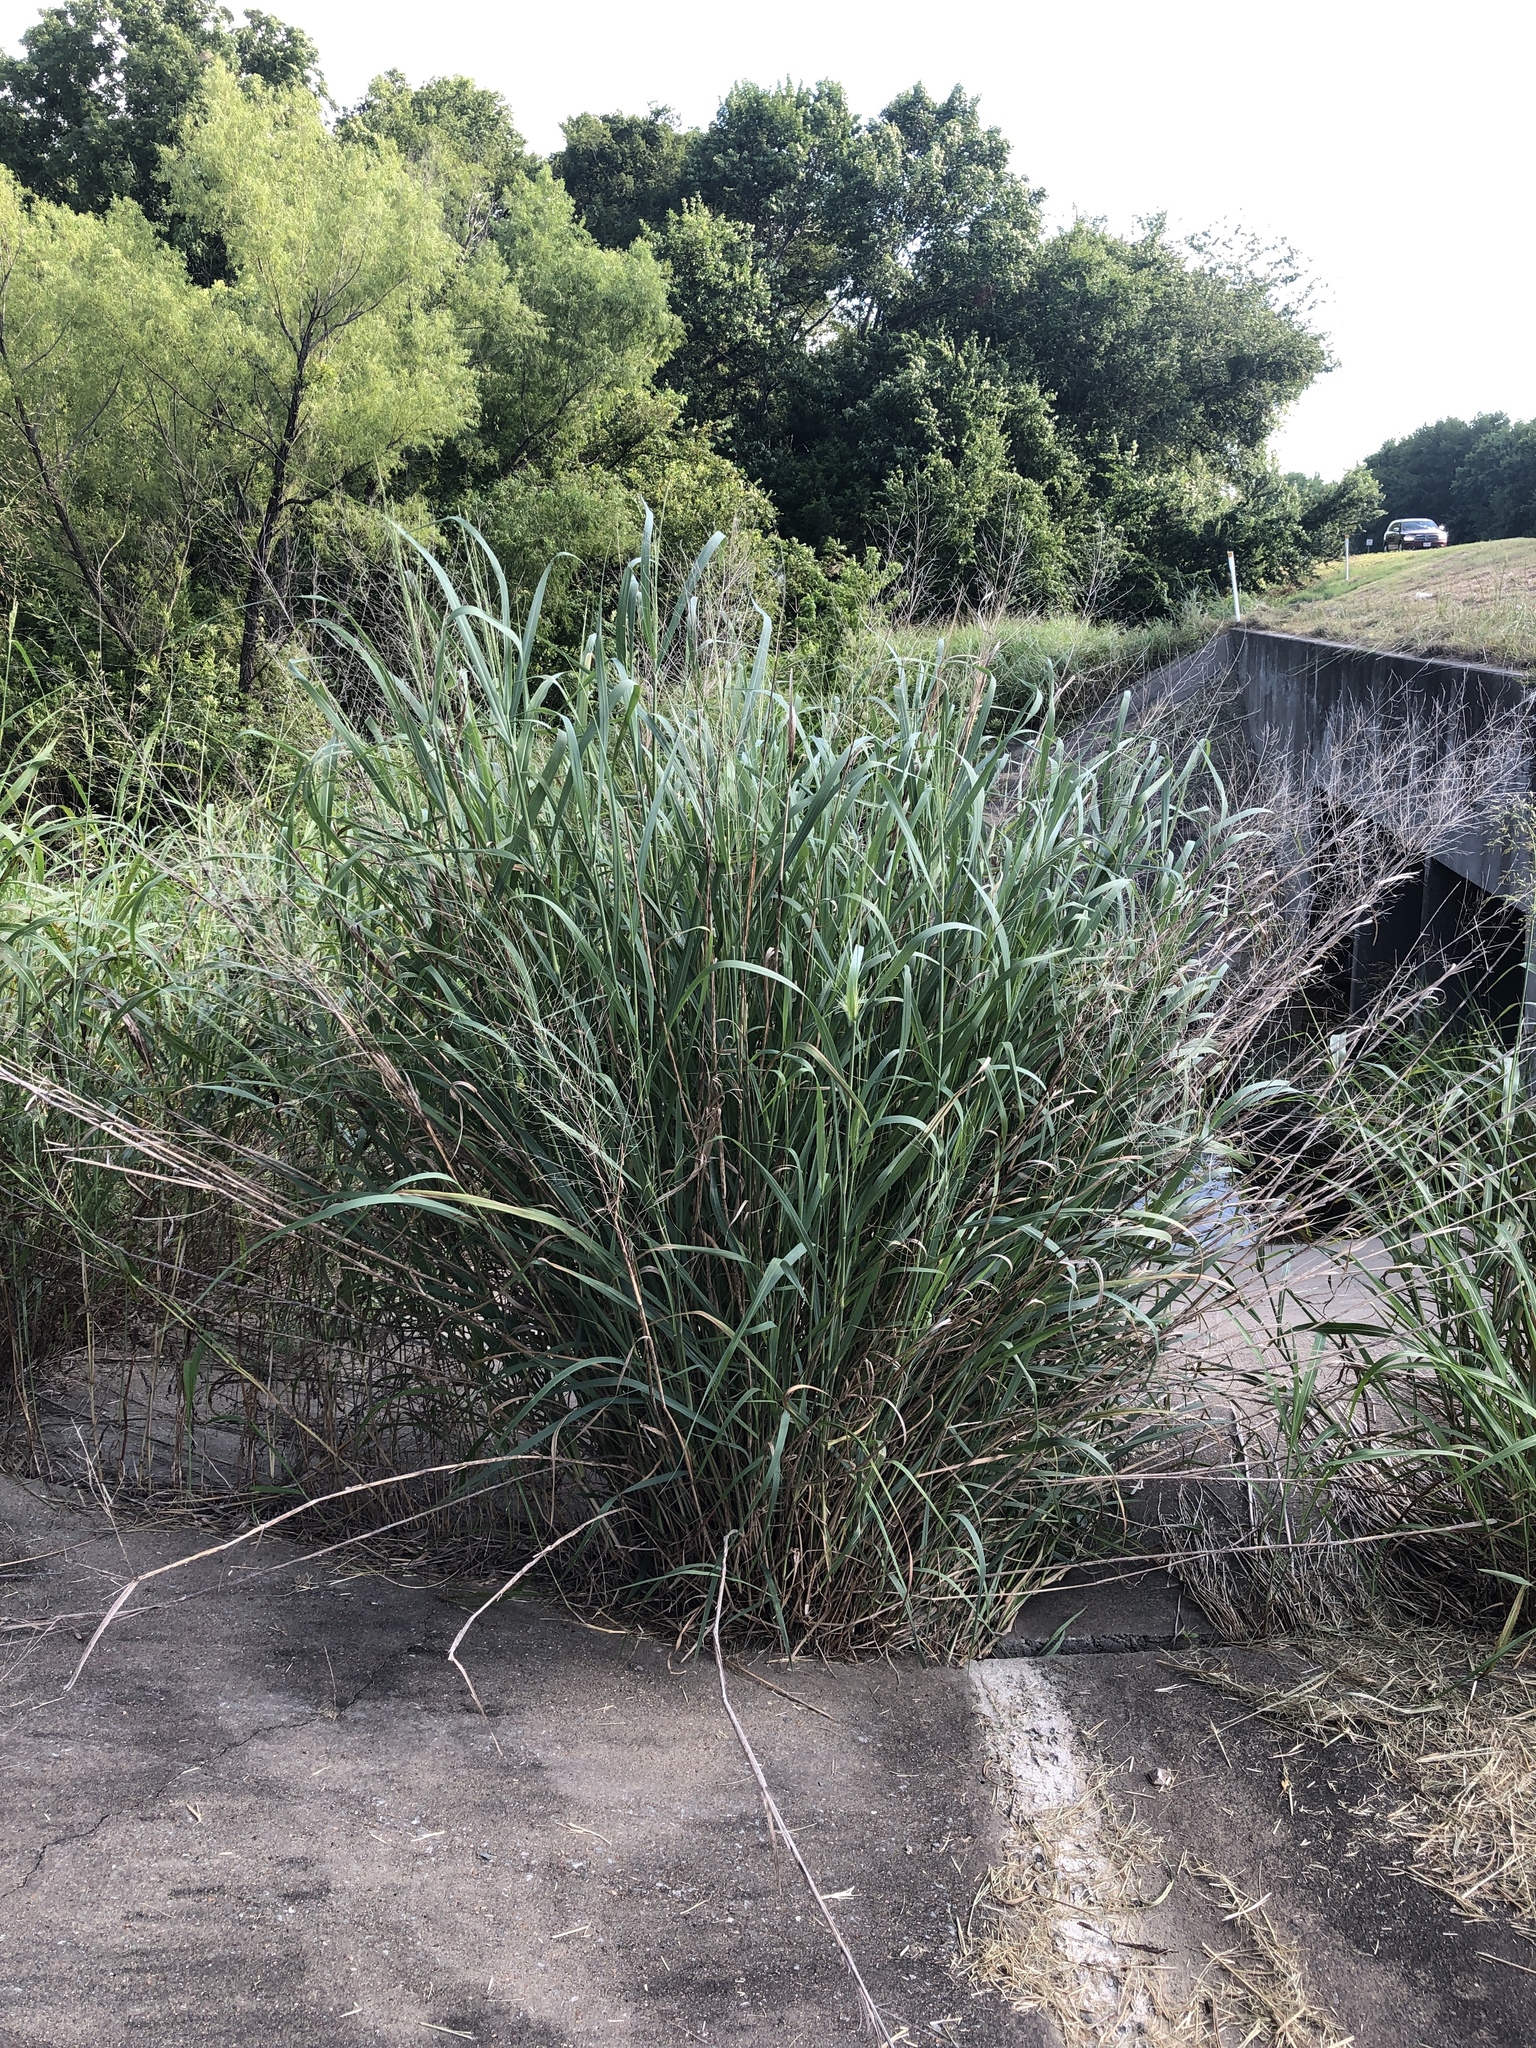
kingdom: Plantae
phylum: Tracheophyta
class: Liliopsida
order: Poales
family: Poaceae
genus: Panicum
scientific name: Panicum virgatum
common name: Switchgrass
